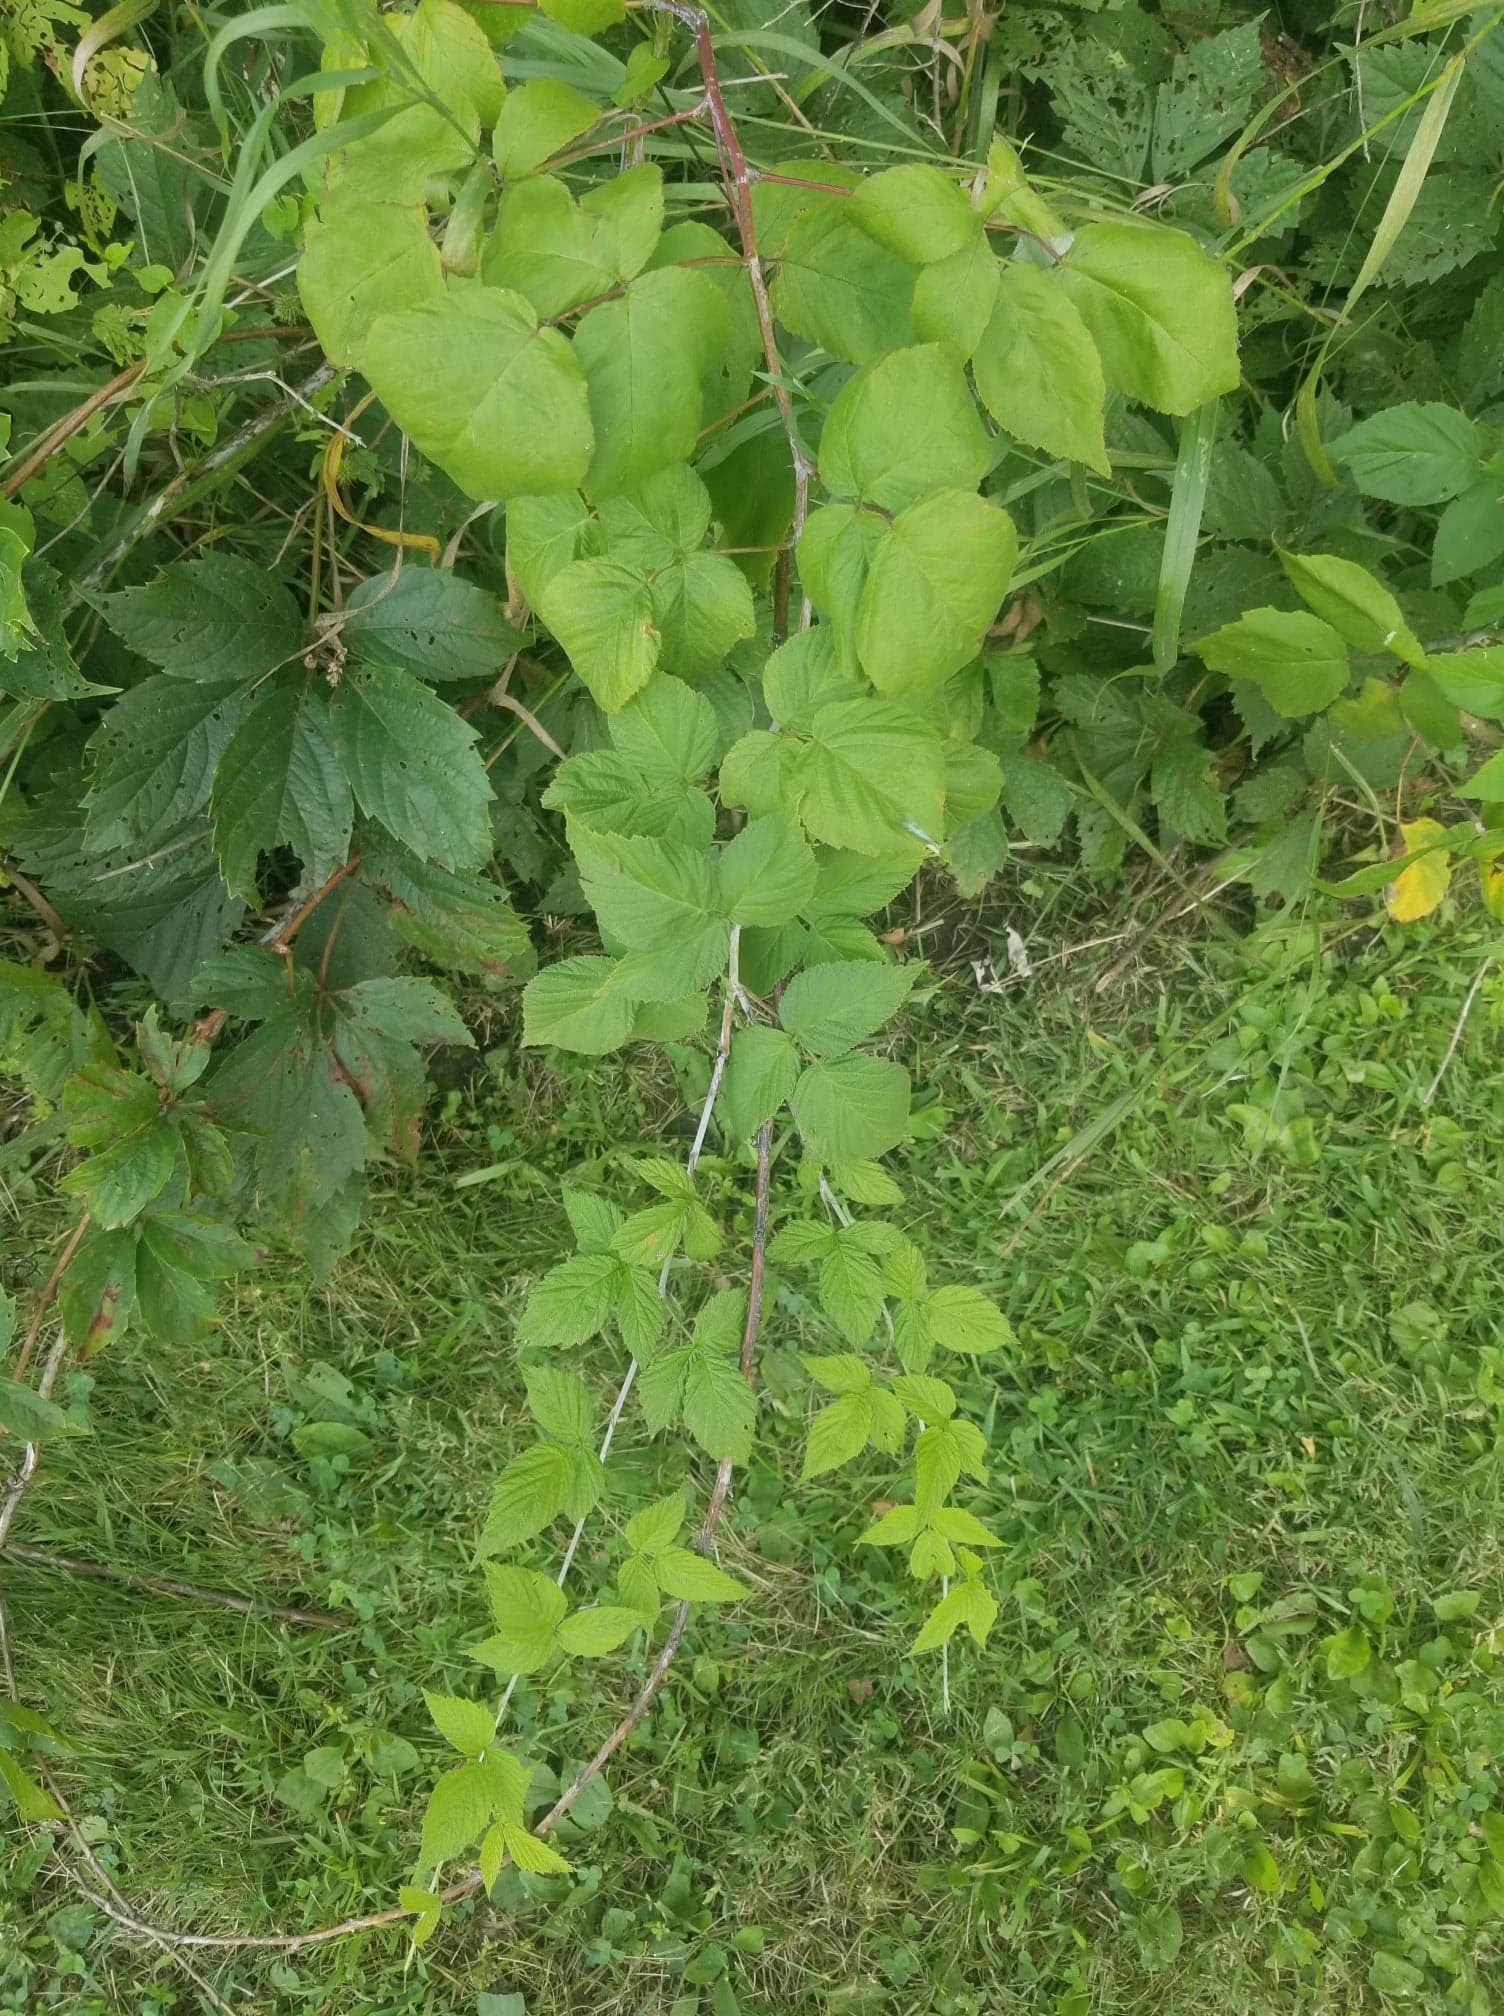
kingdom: Plantae
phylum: Tracheophyta
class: Magnoliopsida
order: Rosales
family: Rosaceae
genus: Rubus
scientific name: Rubus occidentalis
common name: Black raspberry
